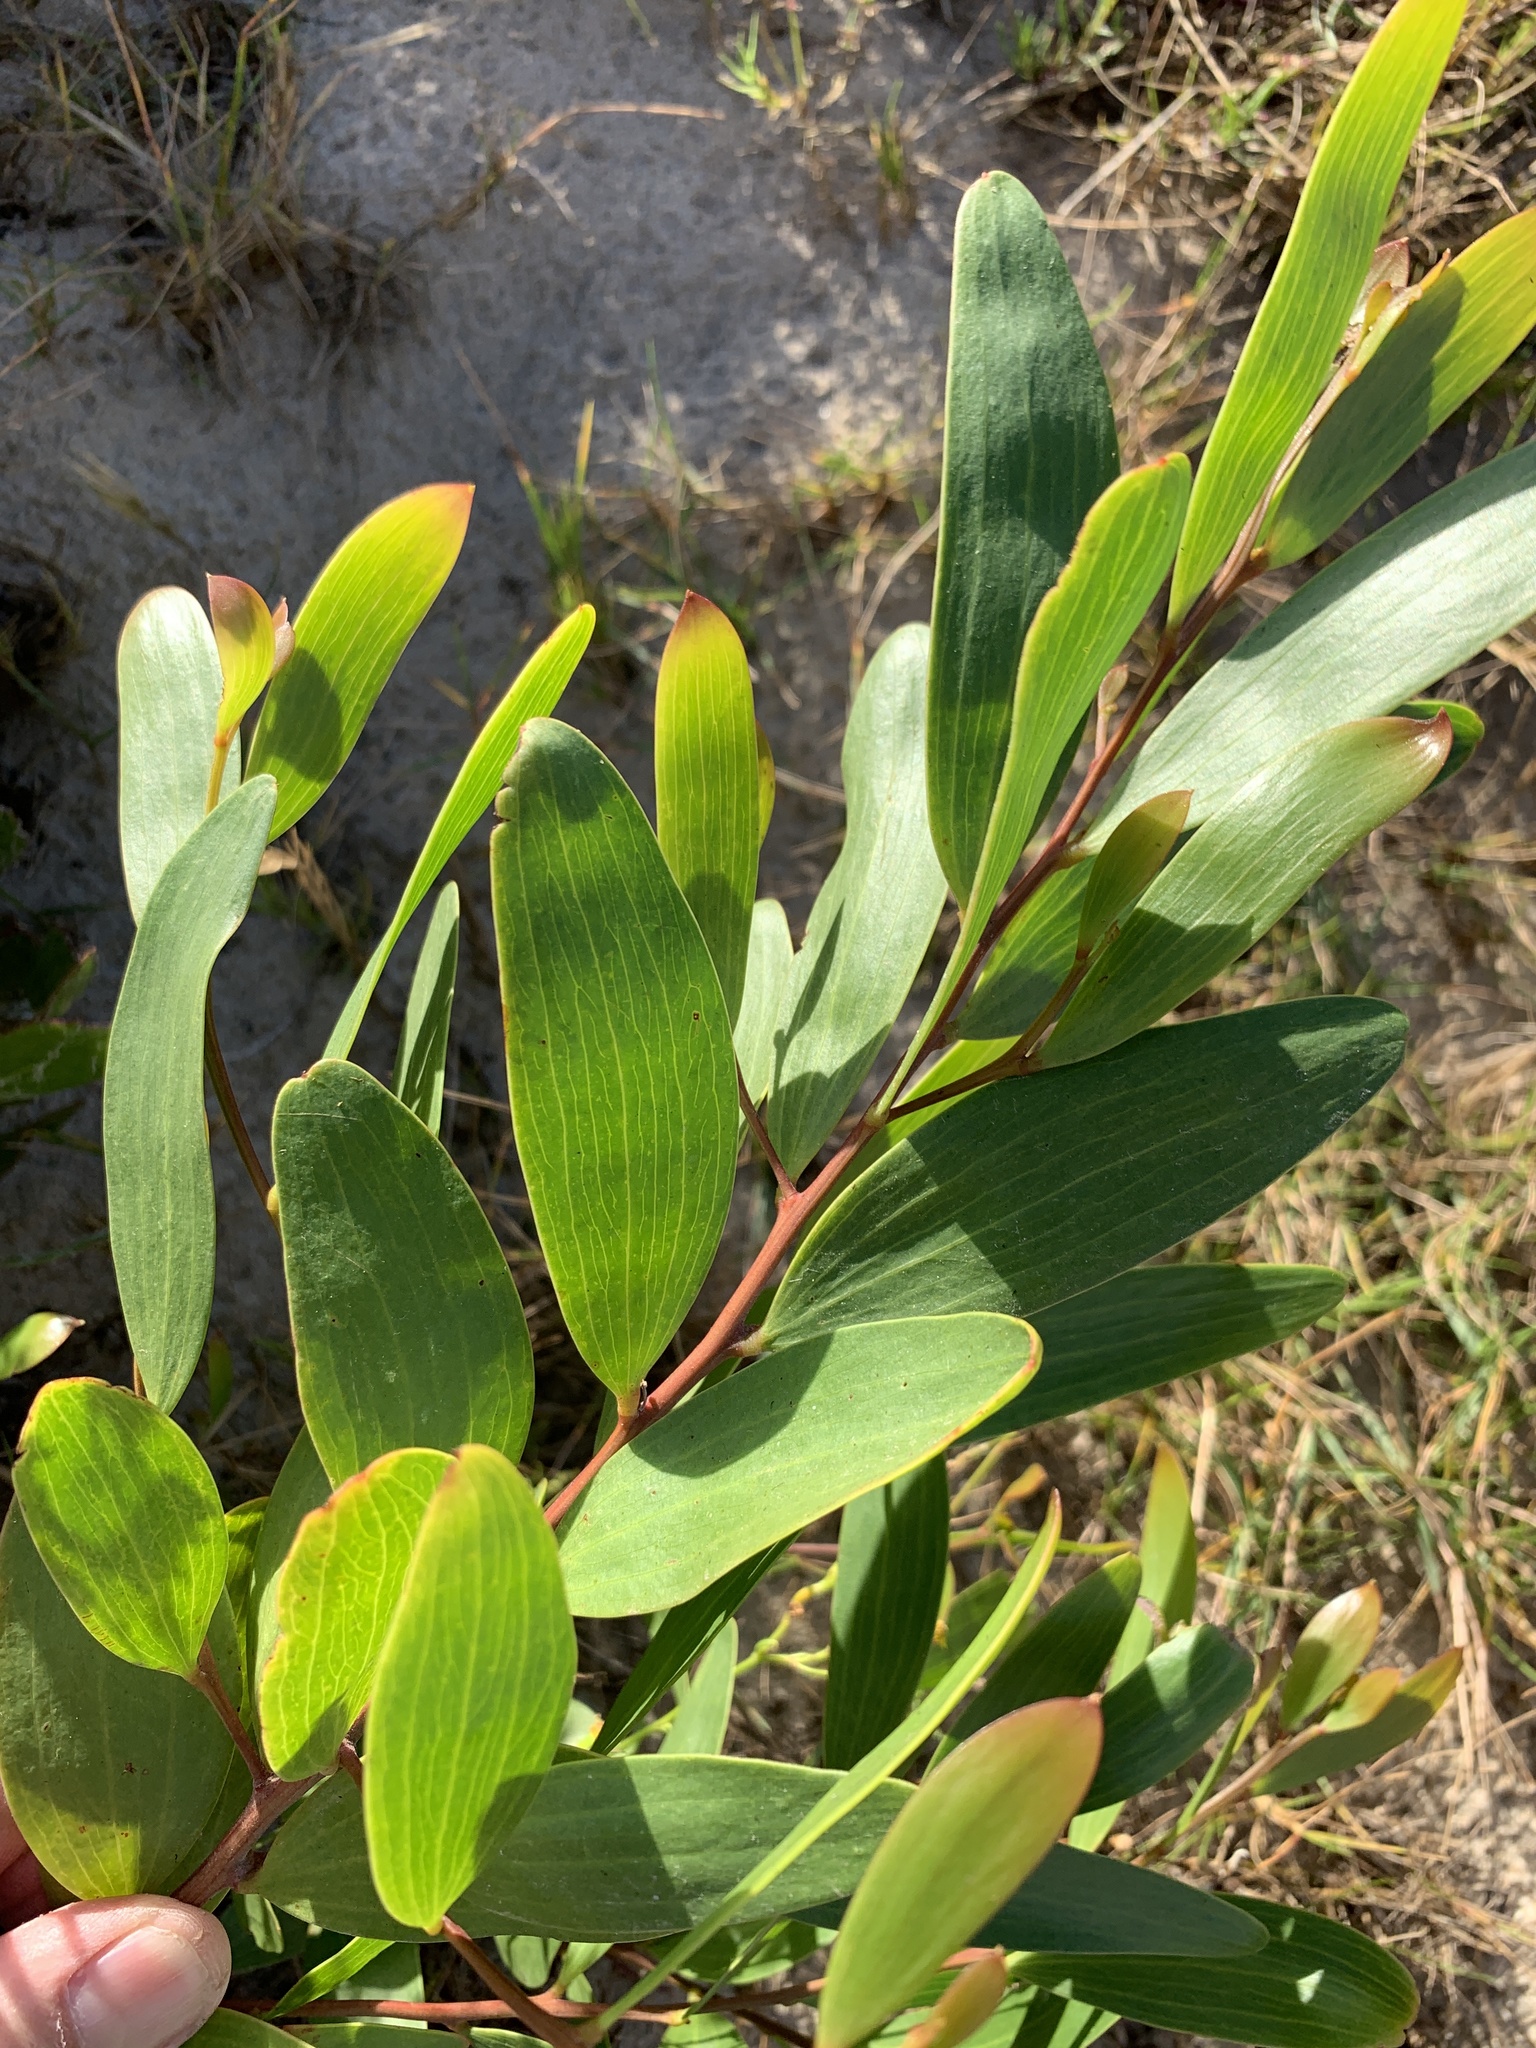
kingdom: Plantae
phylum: Tracheophyta
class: Magnoliopsida
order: Fabales
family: Fabaceae
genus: Acacia
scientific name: Acacia cyclops
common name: Coastal wattle
